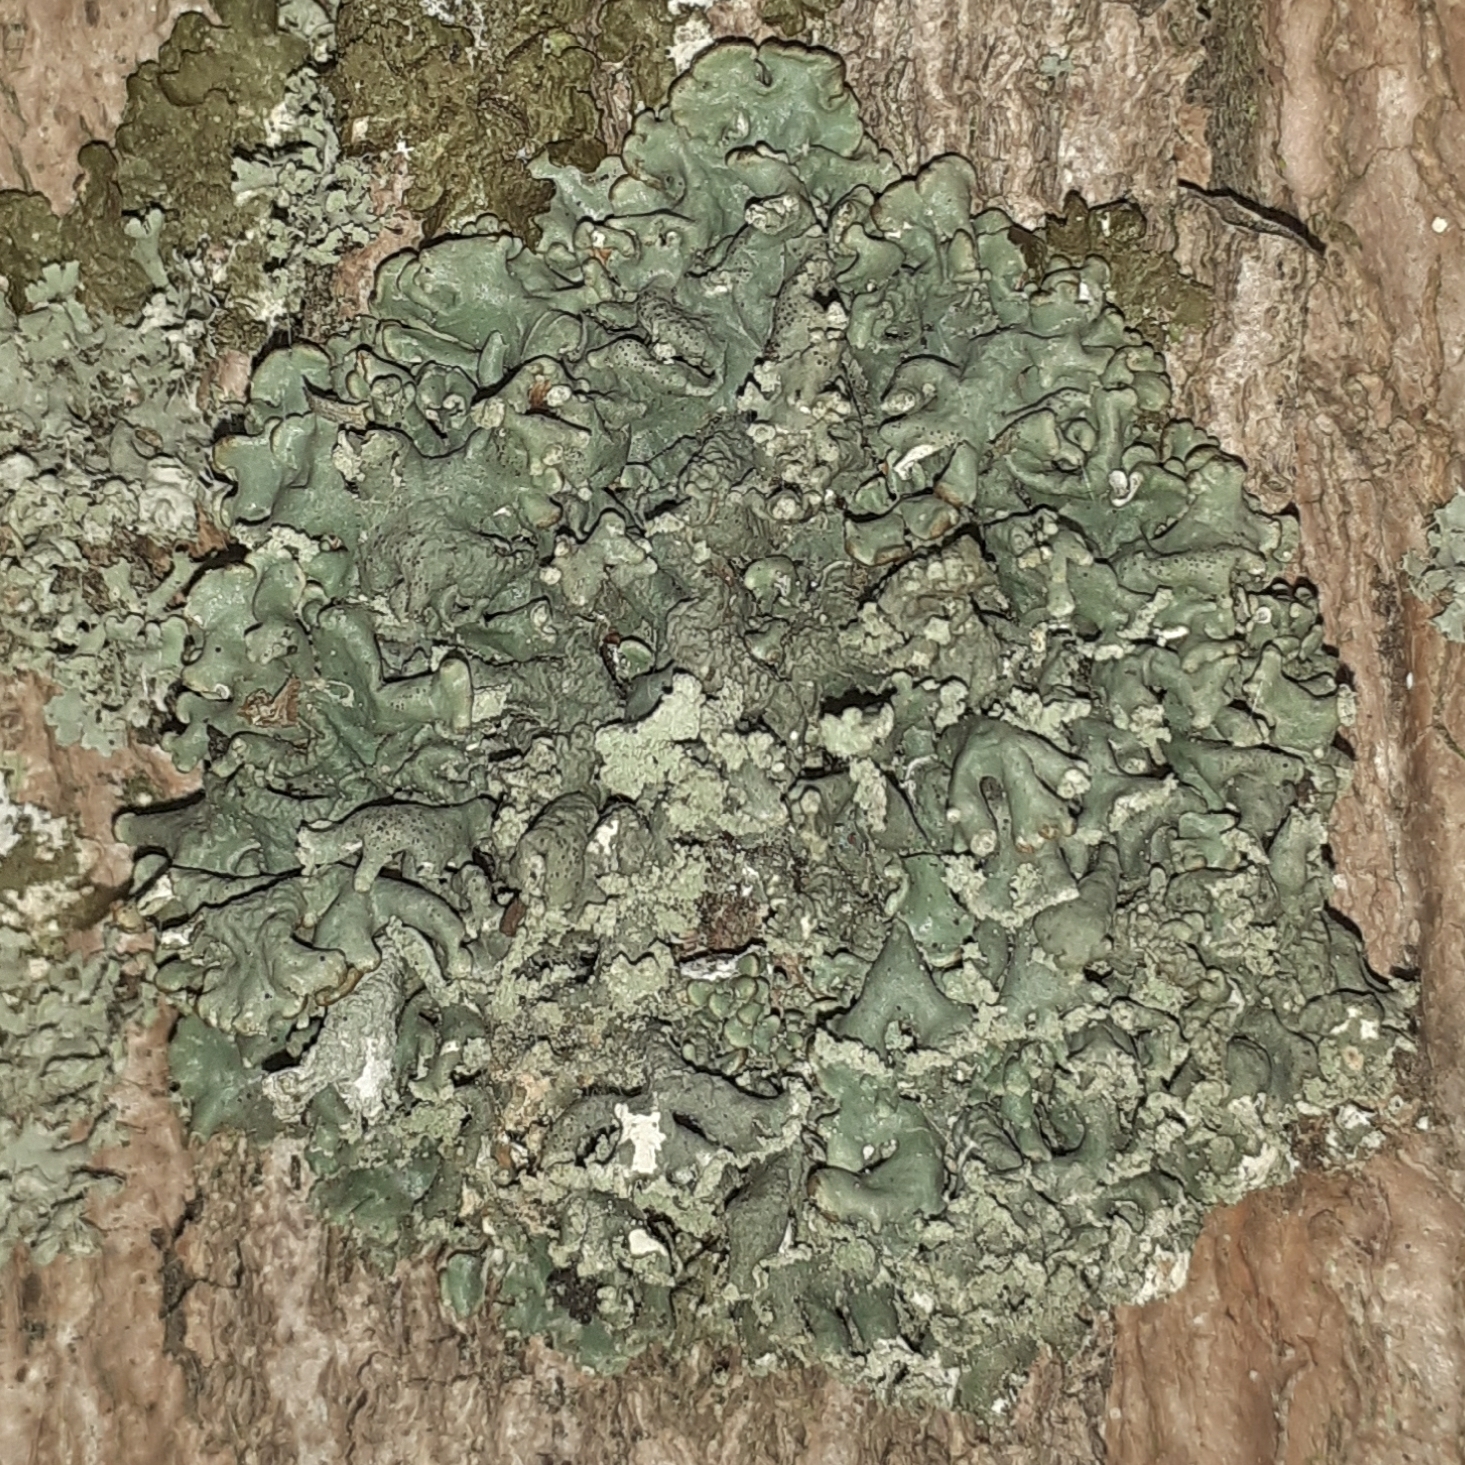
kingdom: Fungi
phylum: Ascomycota
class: Lecanoromycetes
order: Lecanorales
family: Parmeliaceae
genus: Hypogymnia
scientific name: Hypogymnia physodes
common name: Dark crottle
